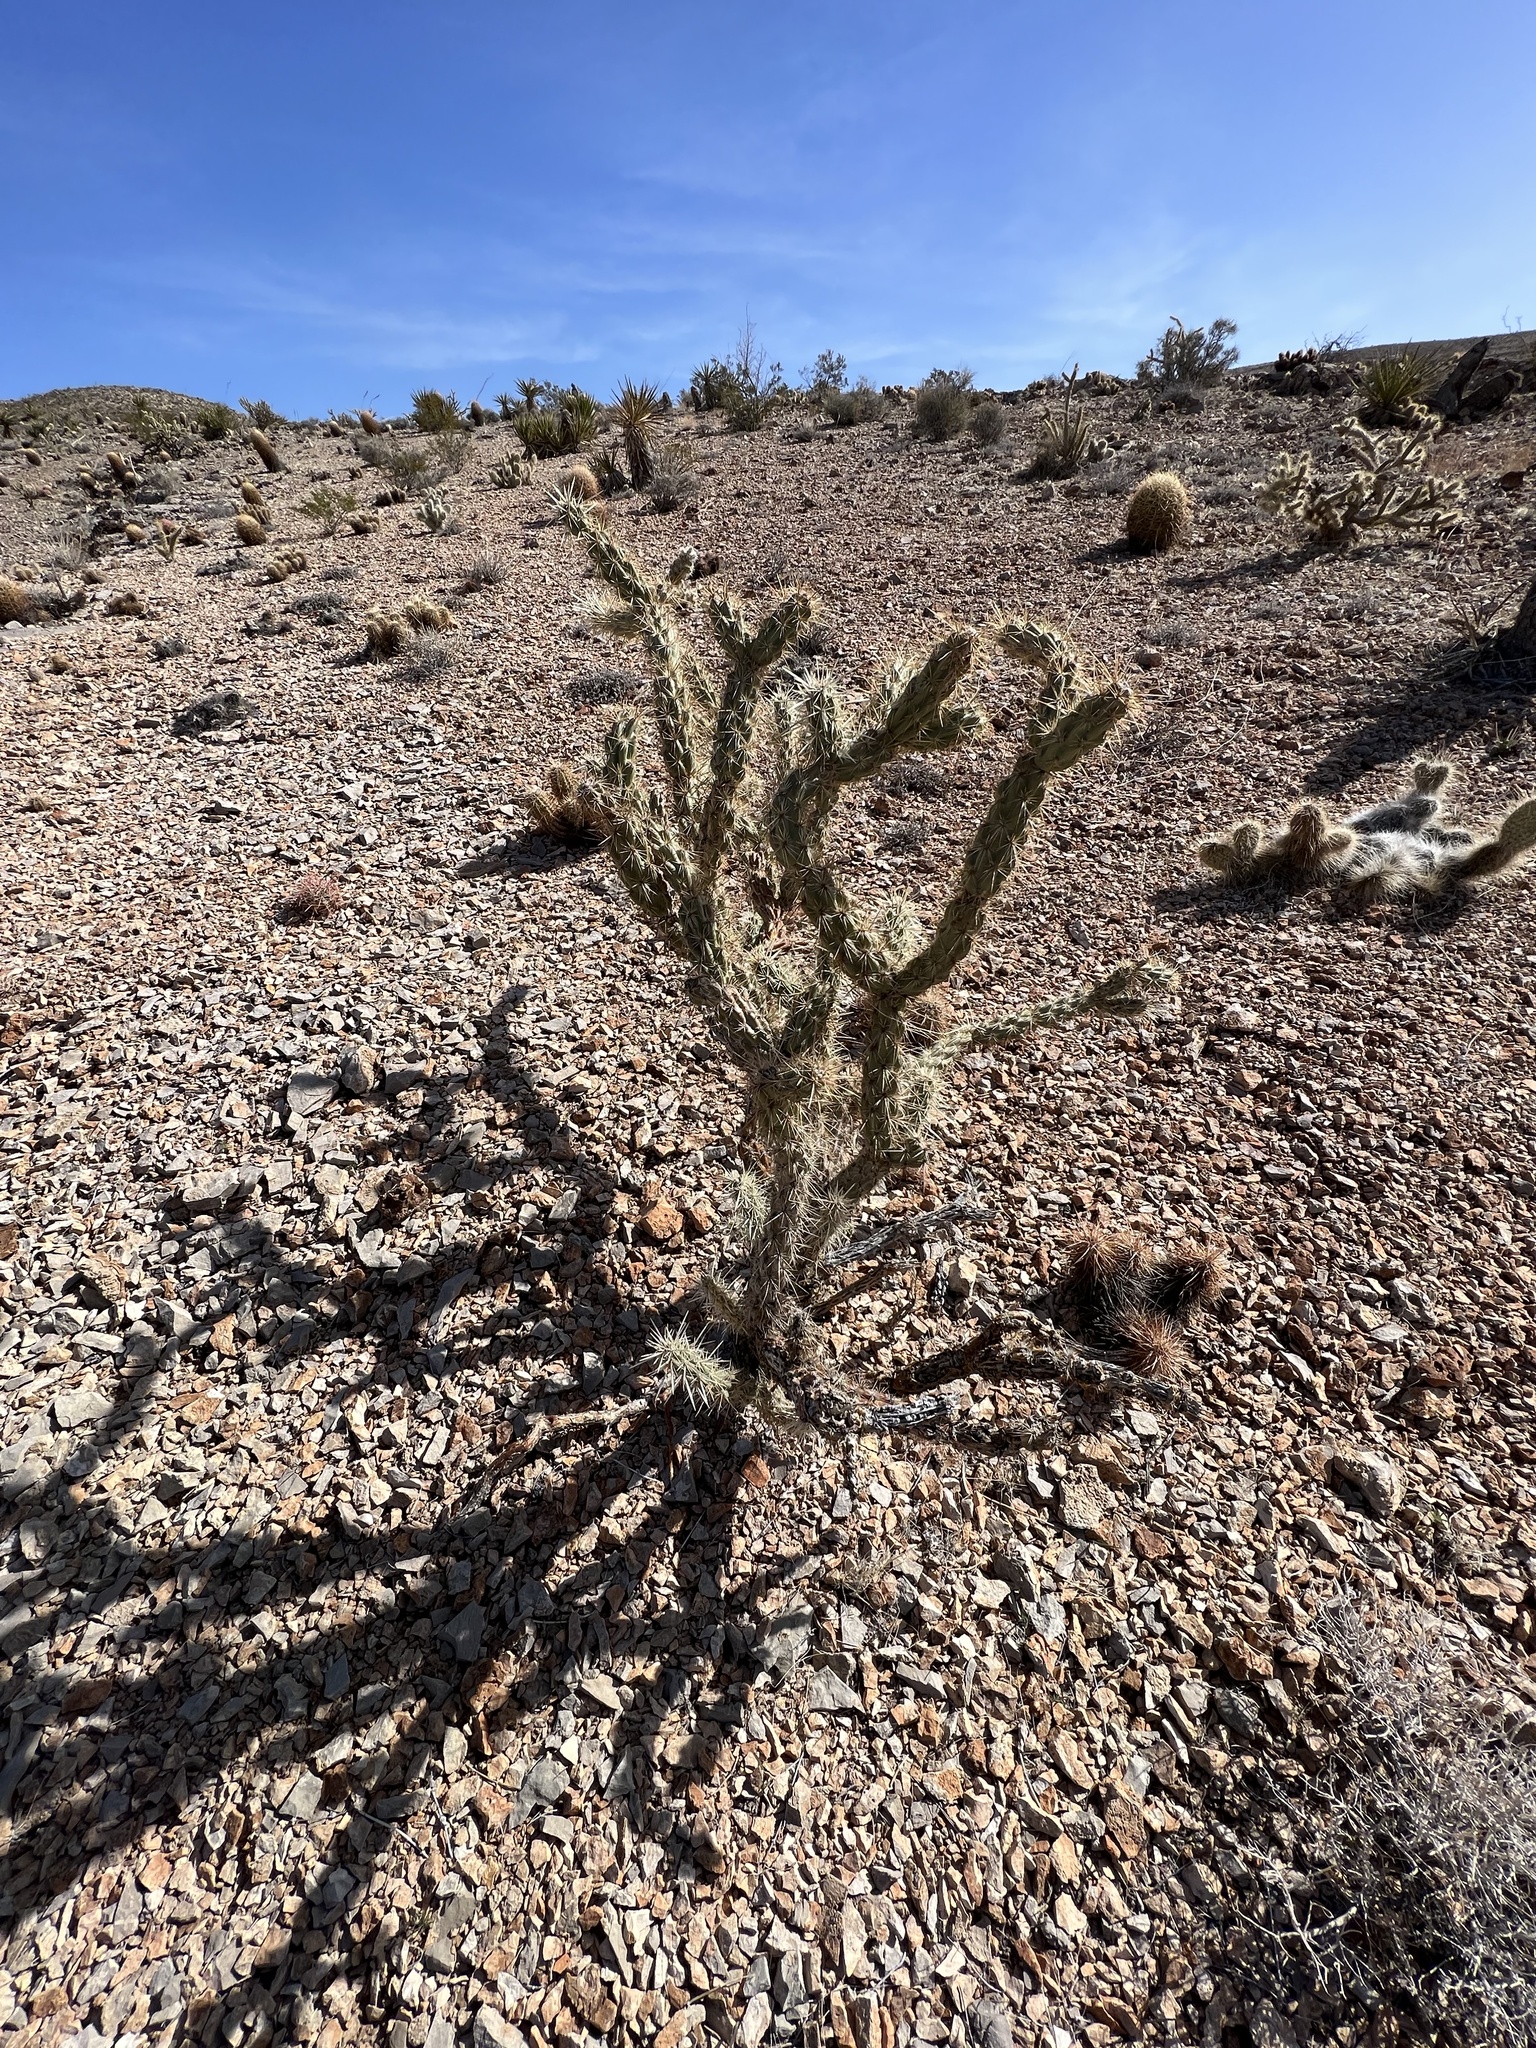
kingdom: Plantae
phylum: Tracheophyta
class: Magnoliopsida
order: Caryophyllales
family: Cactaceae
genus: Cylindropuntia
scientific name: Cylindropuntia acanthocarpa
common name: Buckhorn cholla
